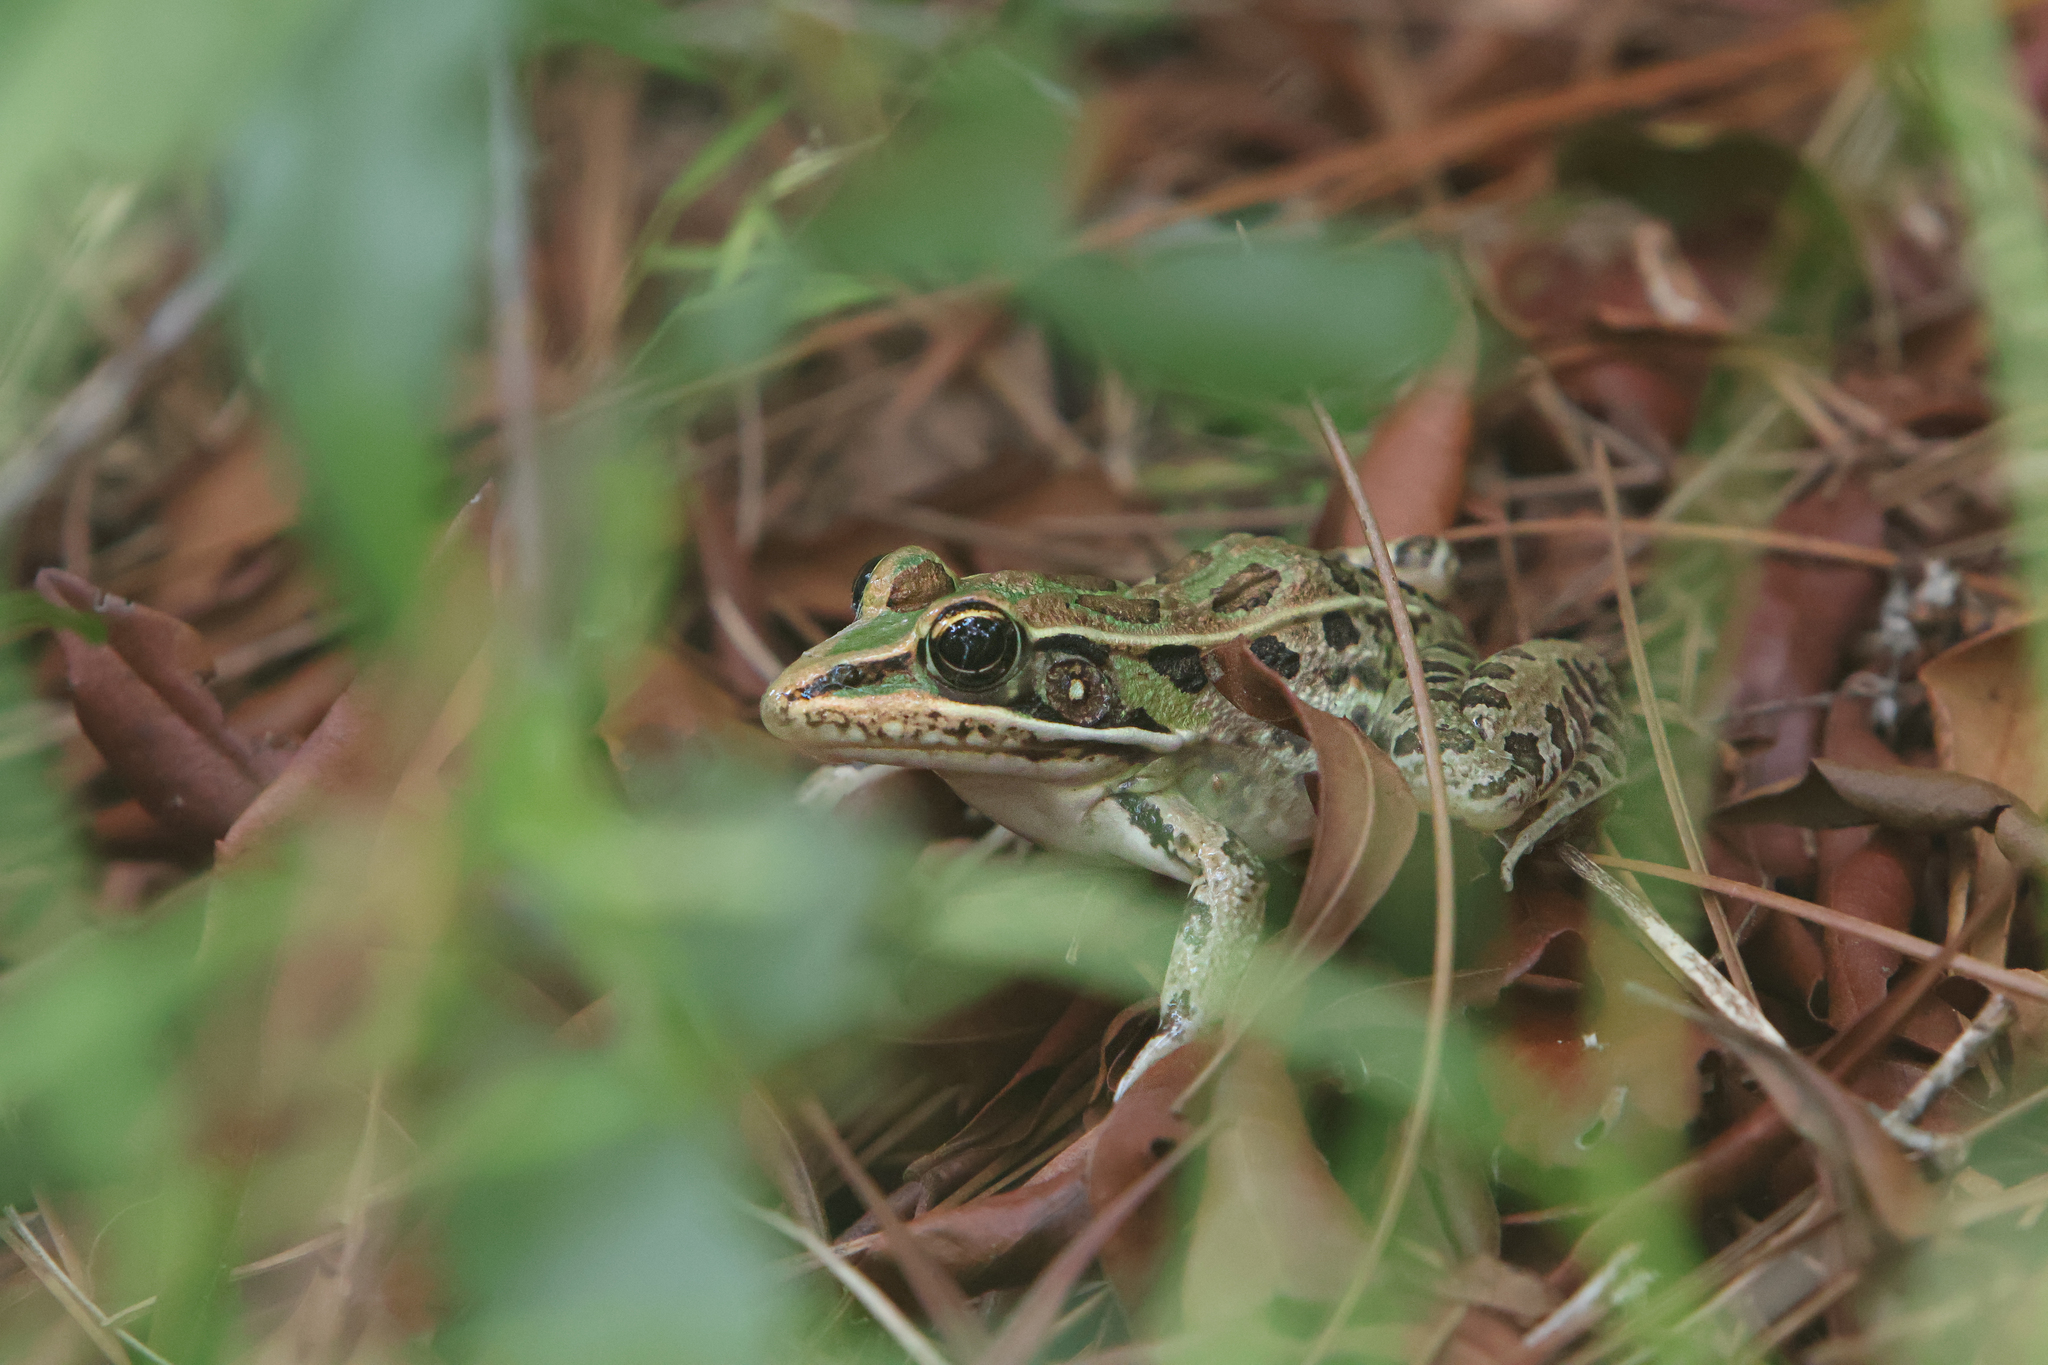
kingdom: Animalia
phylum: Chordata
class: Amphibia
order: Anura
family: Ranidae
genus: Lithobates
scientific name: Lithobates sphenocephalus
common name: Southern leopard frog
